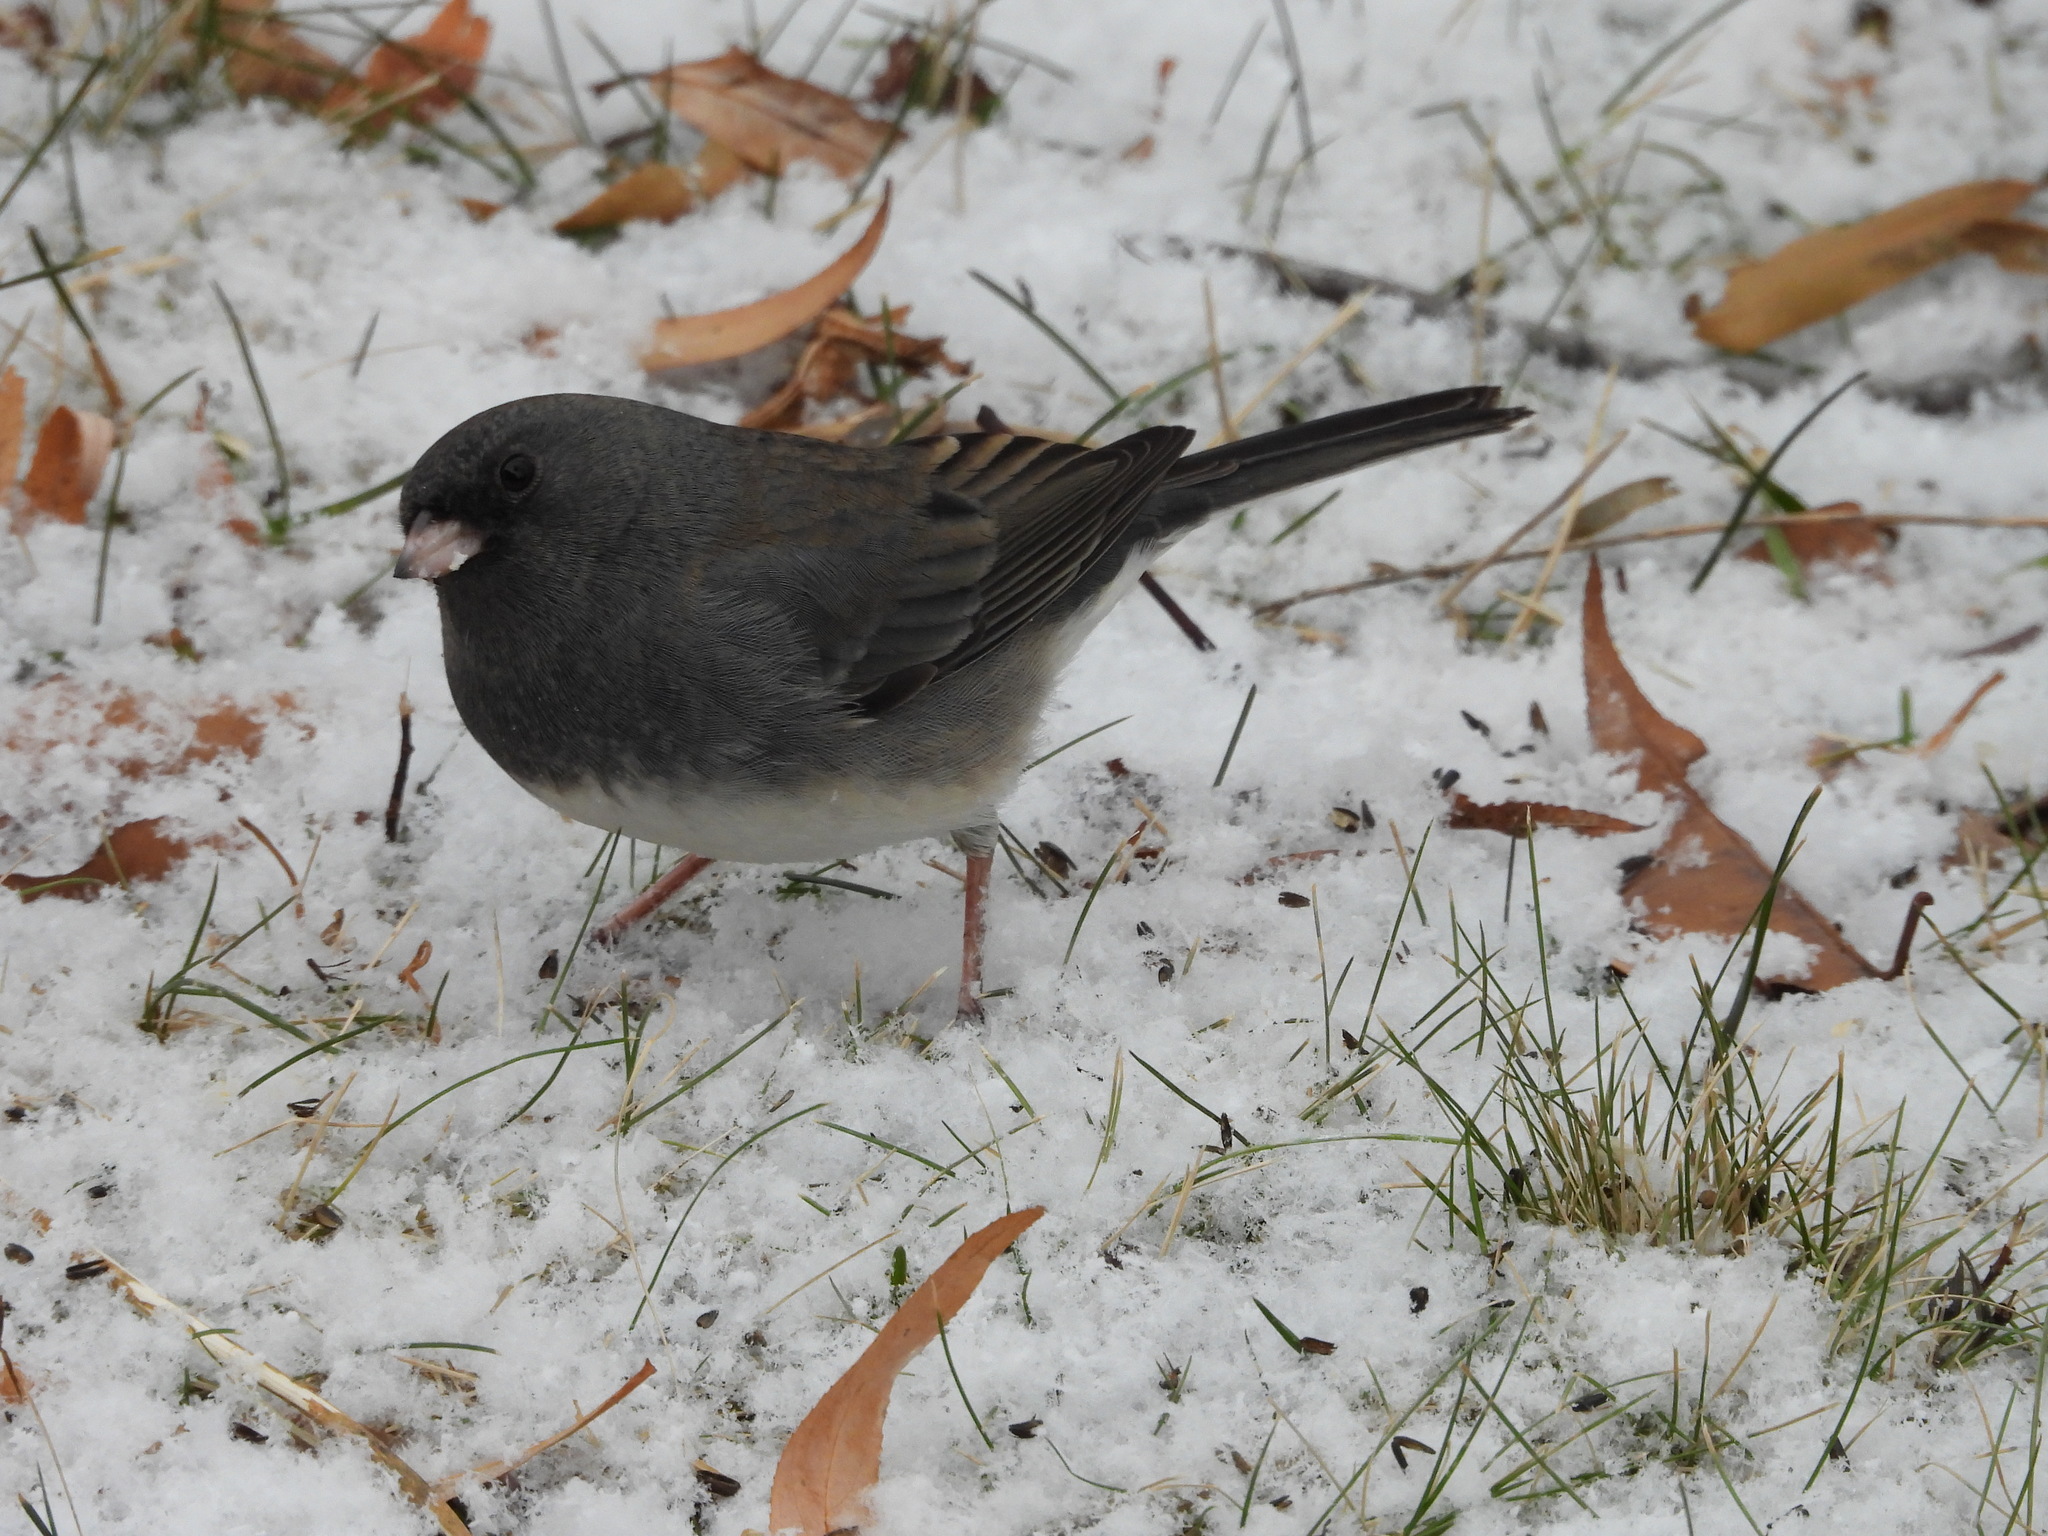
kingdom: Animalia
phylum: Chordata
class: Aves
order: Passeriformes
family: Passerellidae
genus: Junco
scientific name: Junco hyemalis
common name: Dark-eyed junco
